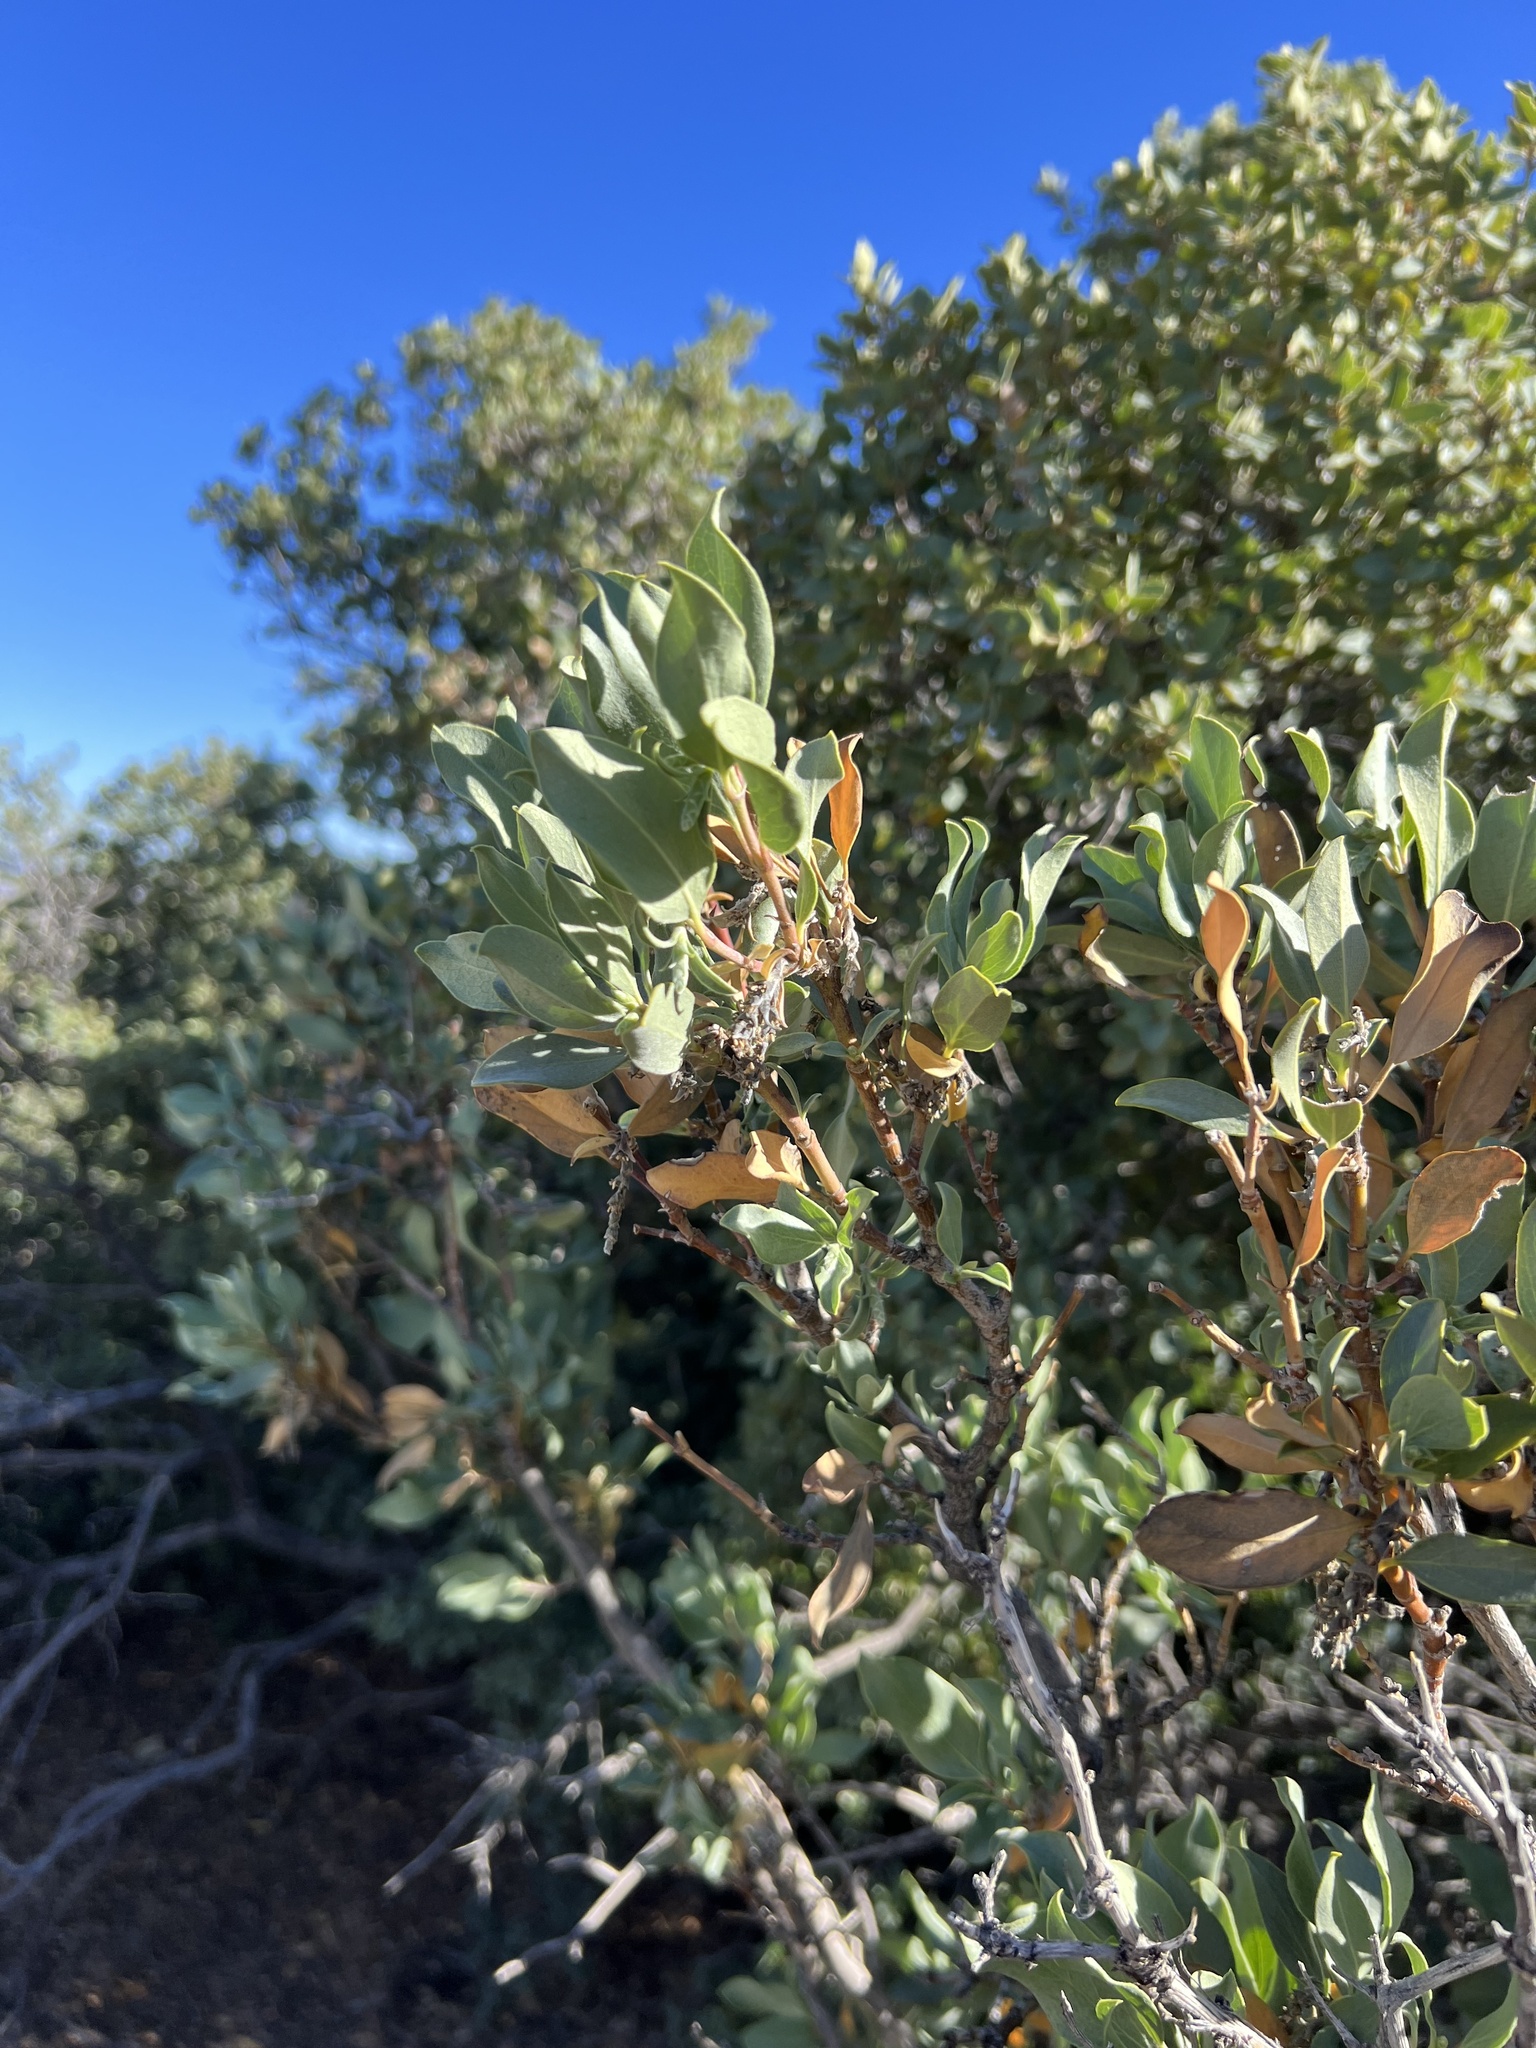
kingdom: Plantae
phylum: Tracheophyta
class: Magnoliopsida
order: Garryales
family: Garryaceae
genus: Garrya
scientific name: Garrya flavescens
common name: Ashy silk-tassel
